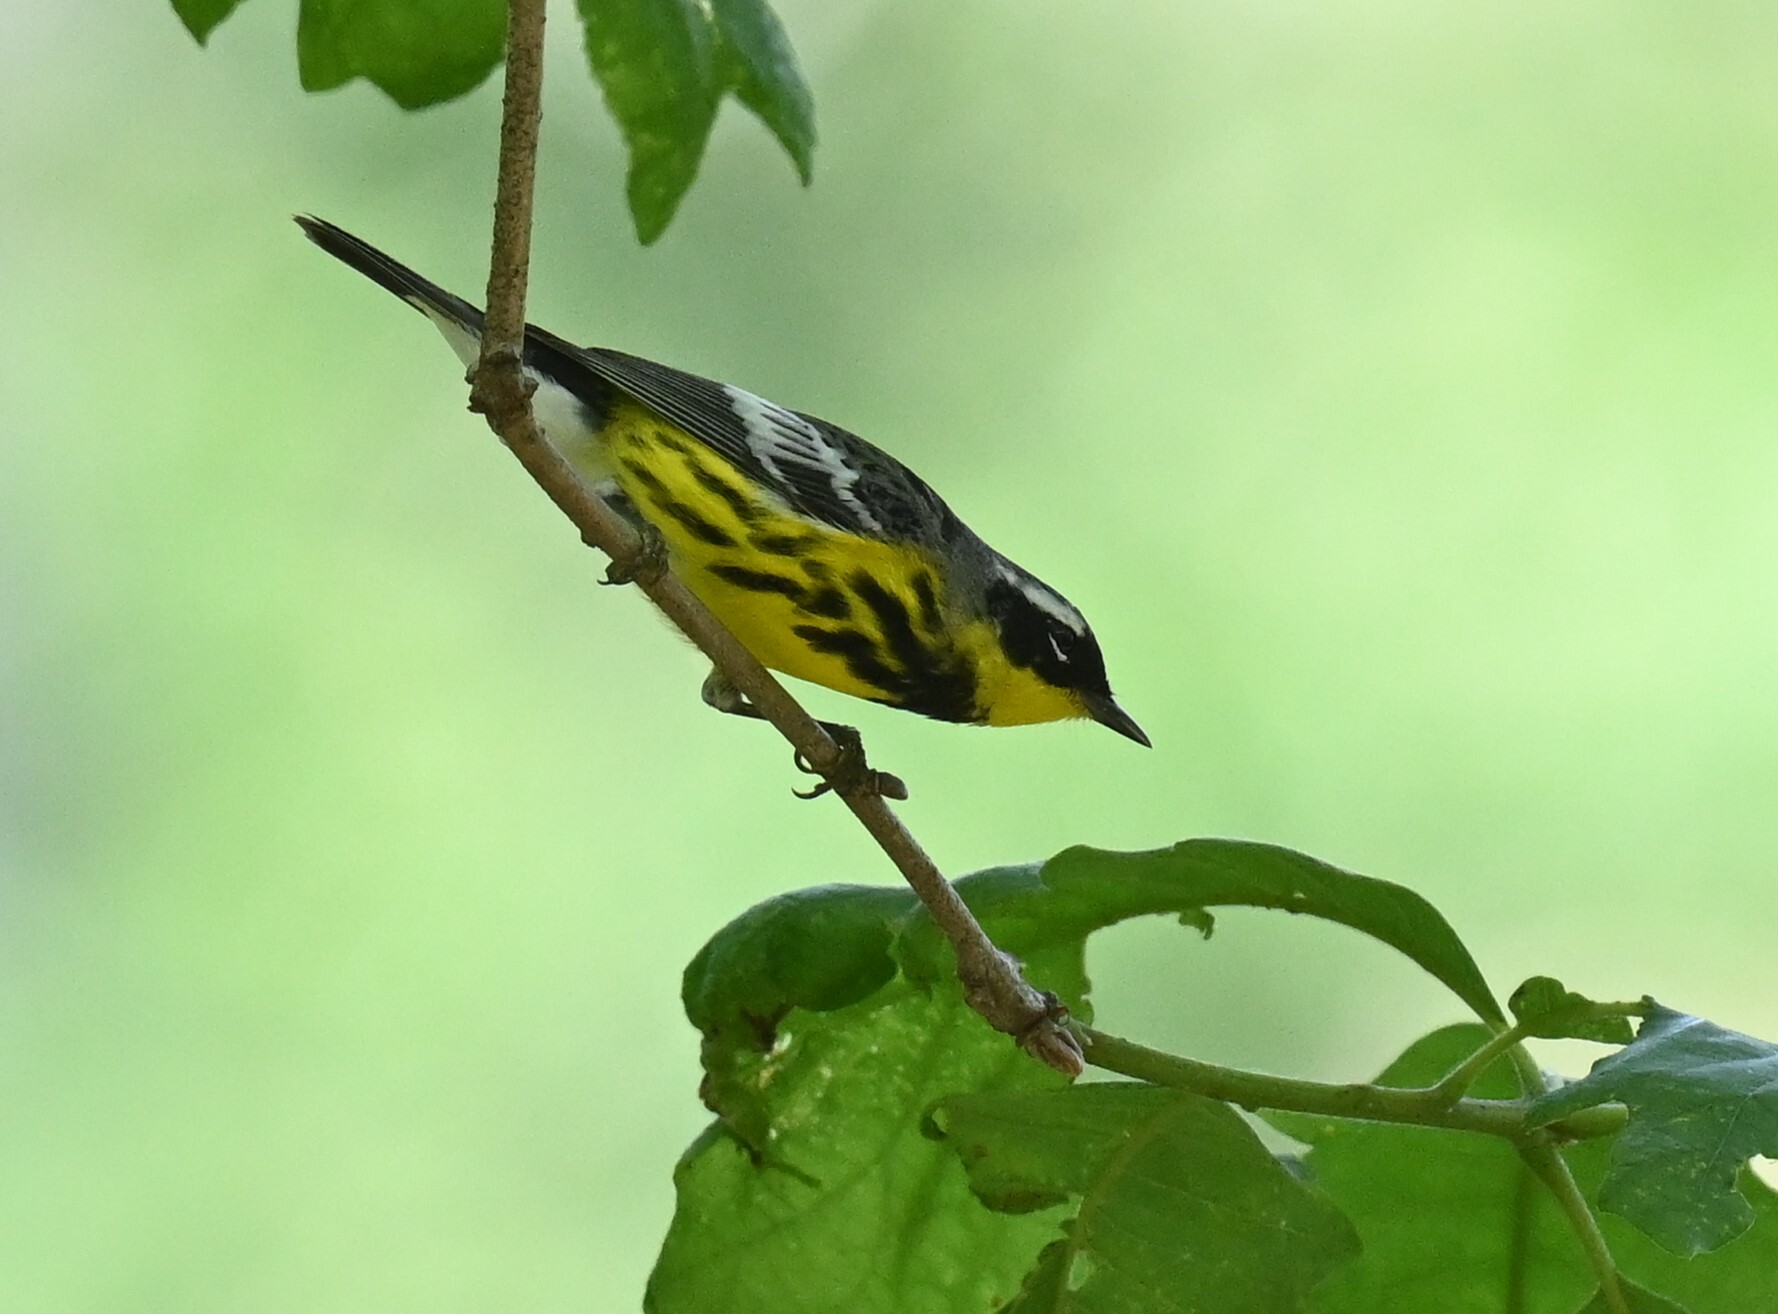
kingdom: Animalia
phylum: Chordata
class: Aves
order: Passeriformes
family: Parulidae
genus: Setophaga
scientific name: Setophaga magnolia
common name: Magnolia warbler
